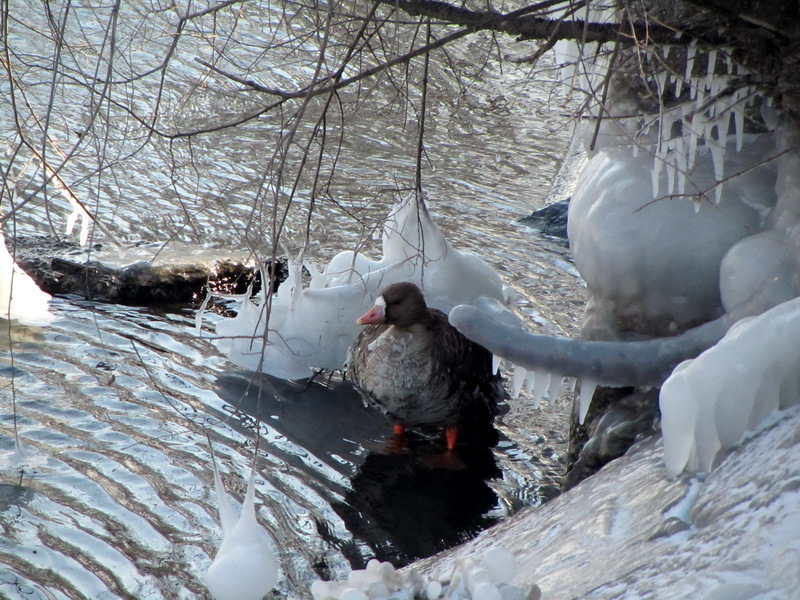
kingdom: Animalia
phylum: Chordata
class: Aves
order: Anseriformes
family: Anatidae
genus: Anser
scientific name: Anser albifrons
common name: Greater white-fronted goose
